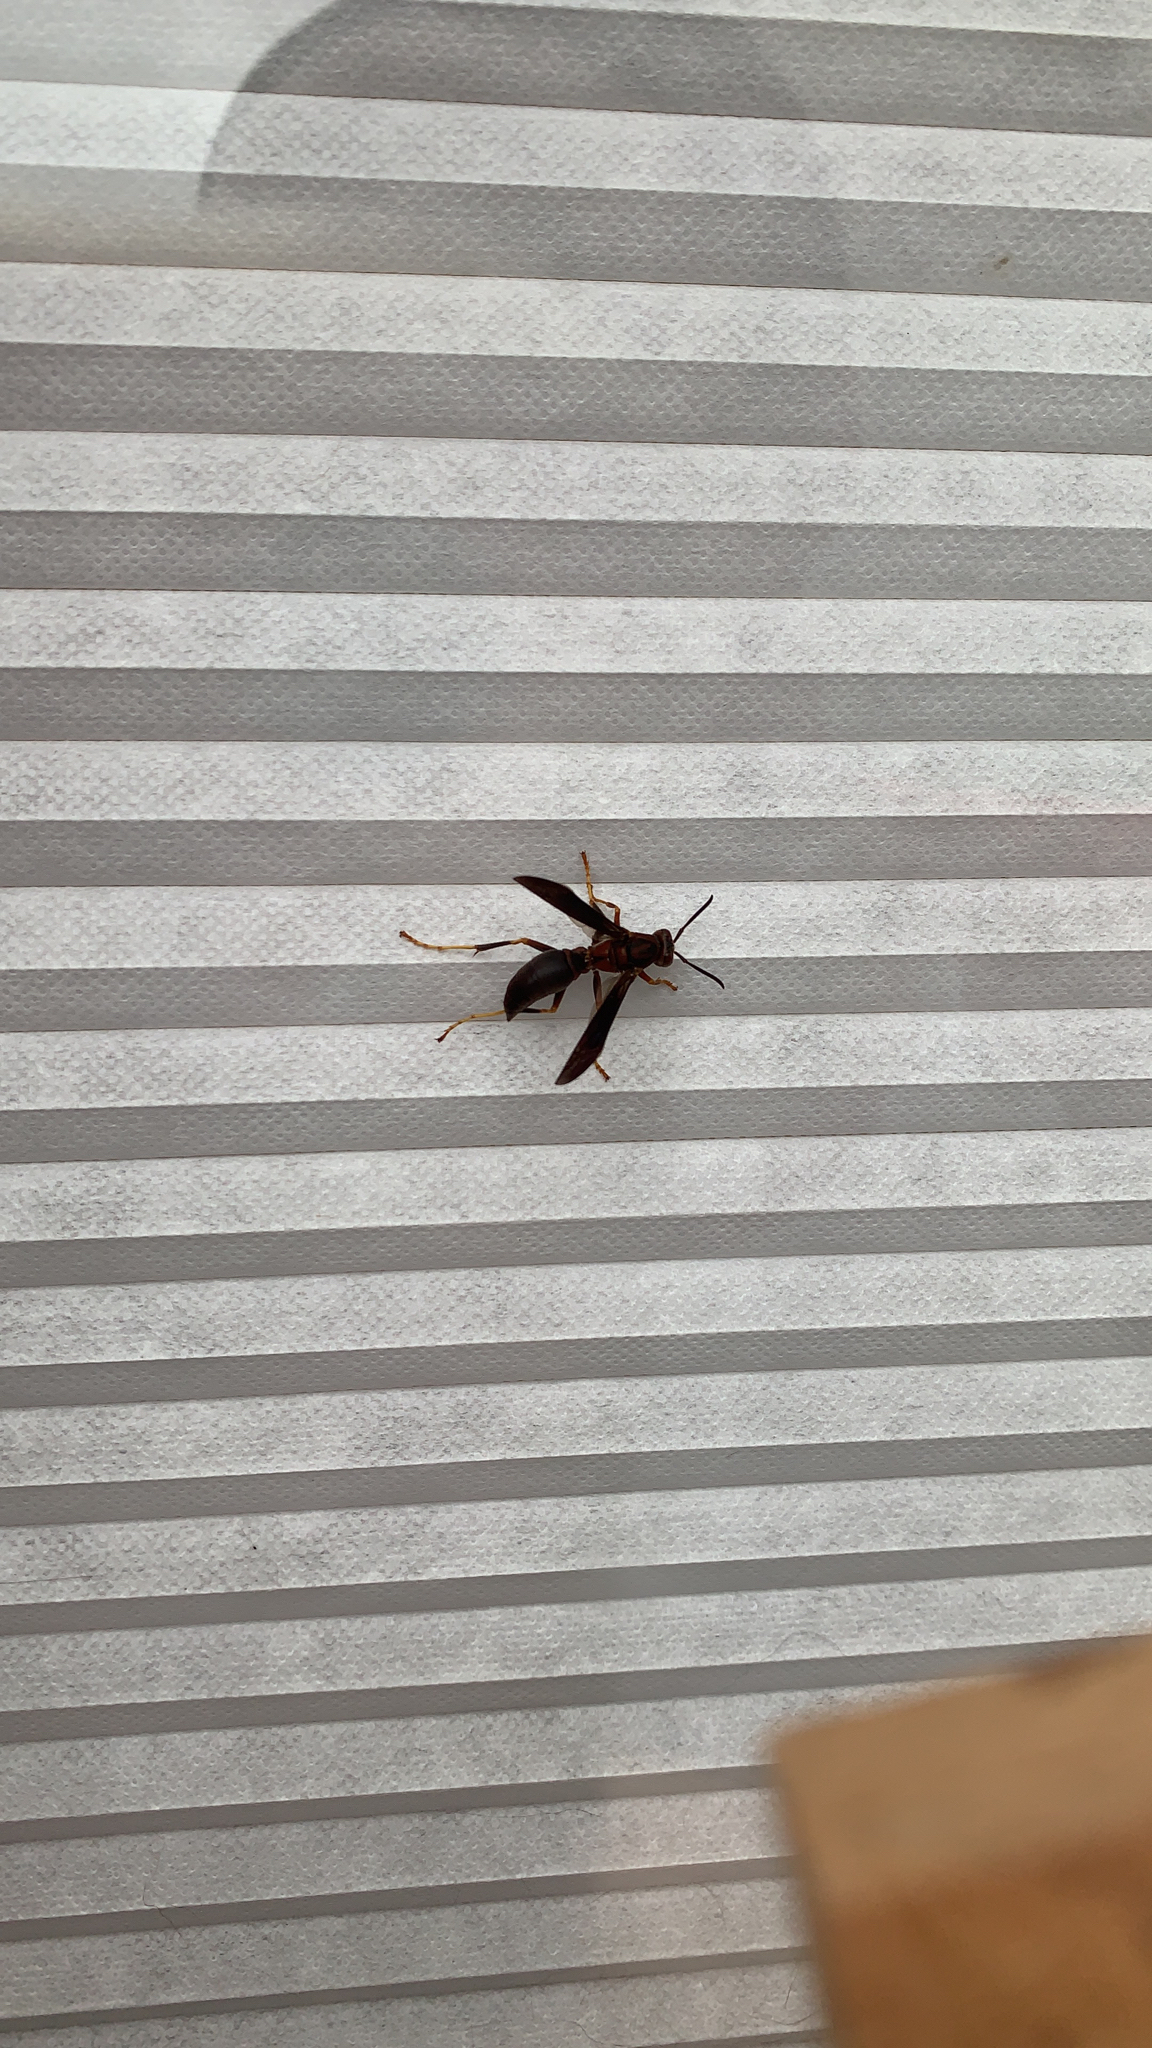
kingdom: Animalia
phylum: Arthropoda
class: Insecta
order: Hymenoptera
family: Eumenidae
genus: Polistes
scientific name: Polistes metricus
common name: Metric paper wasp
